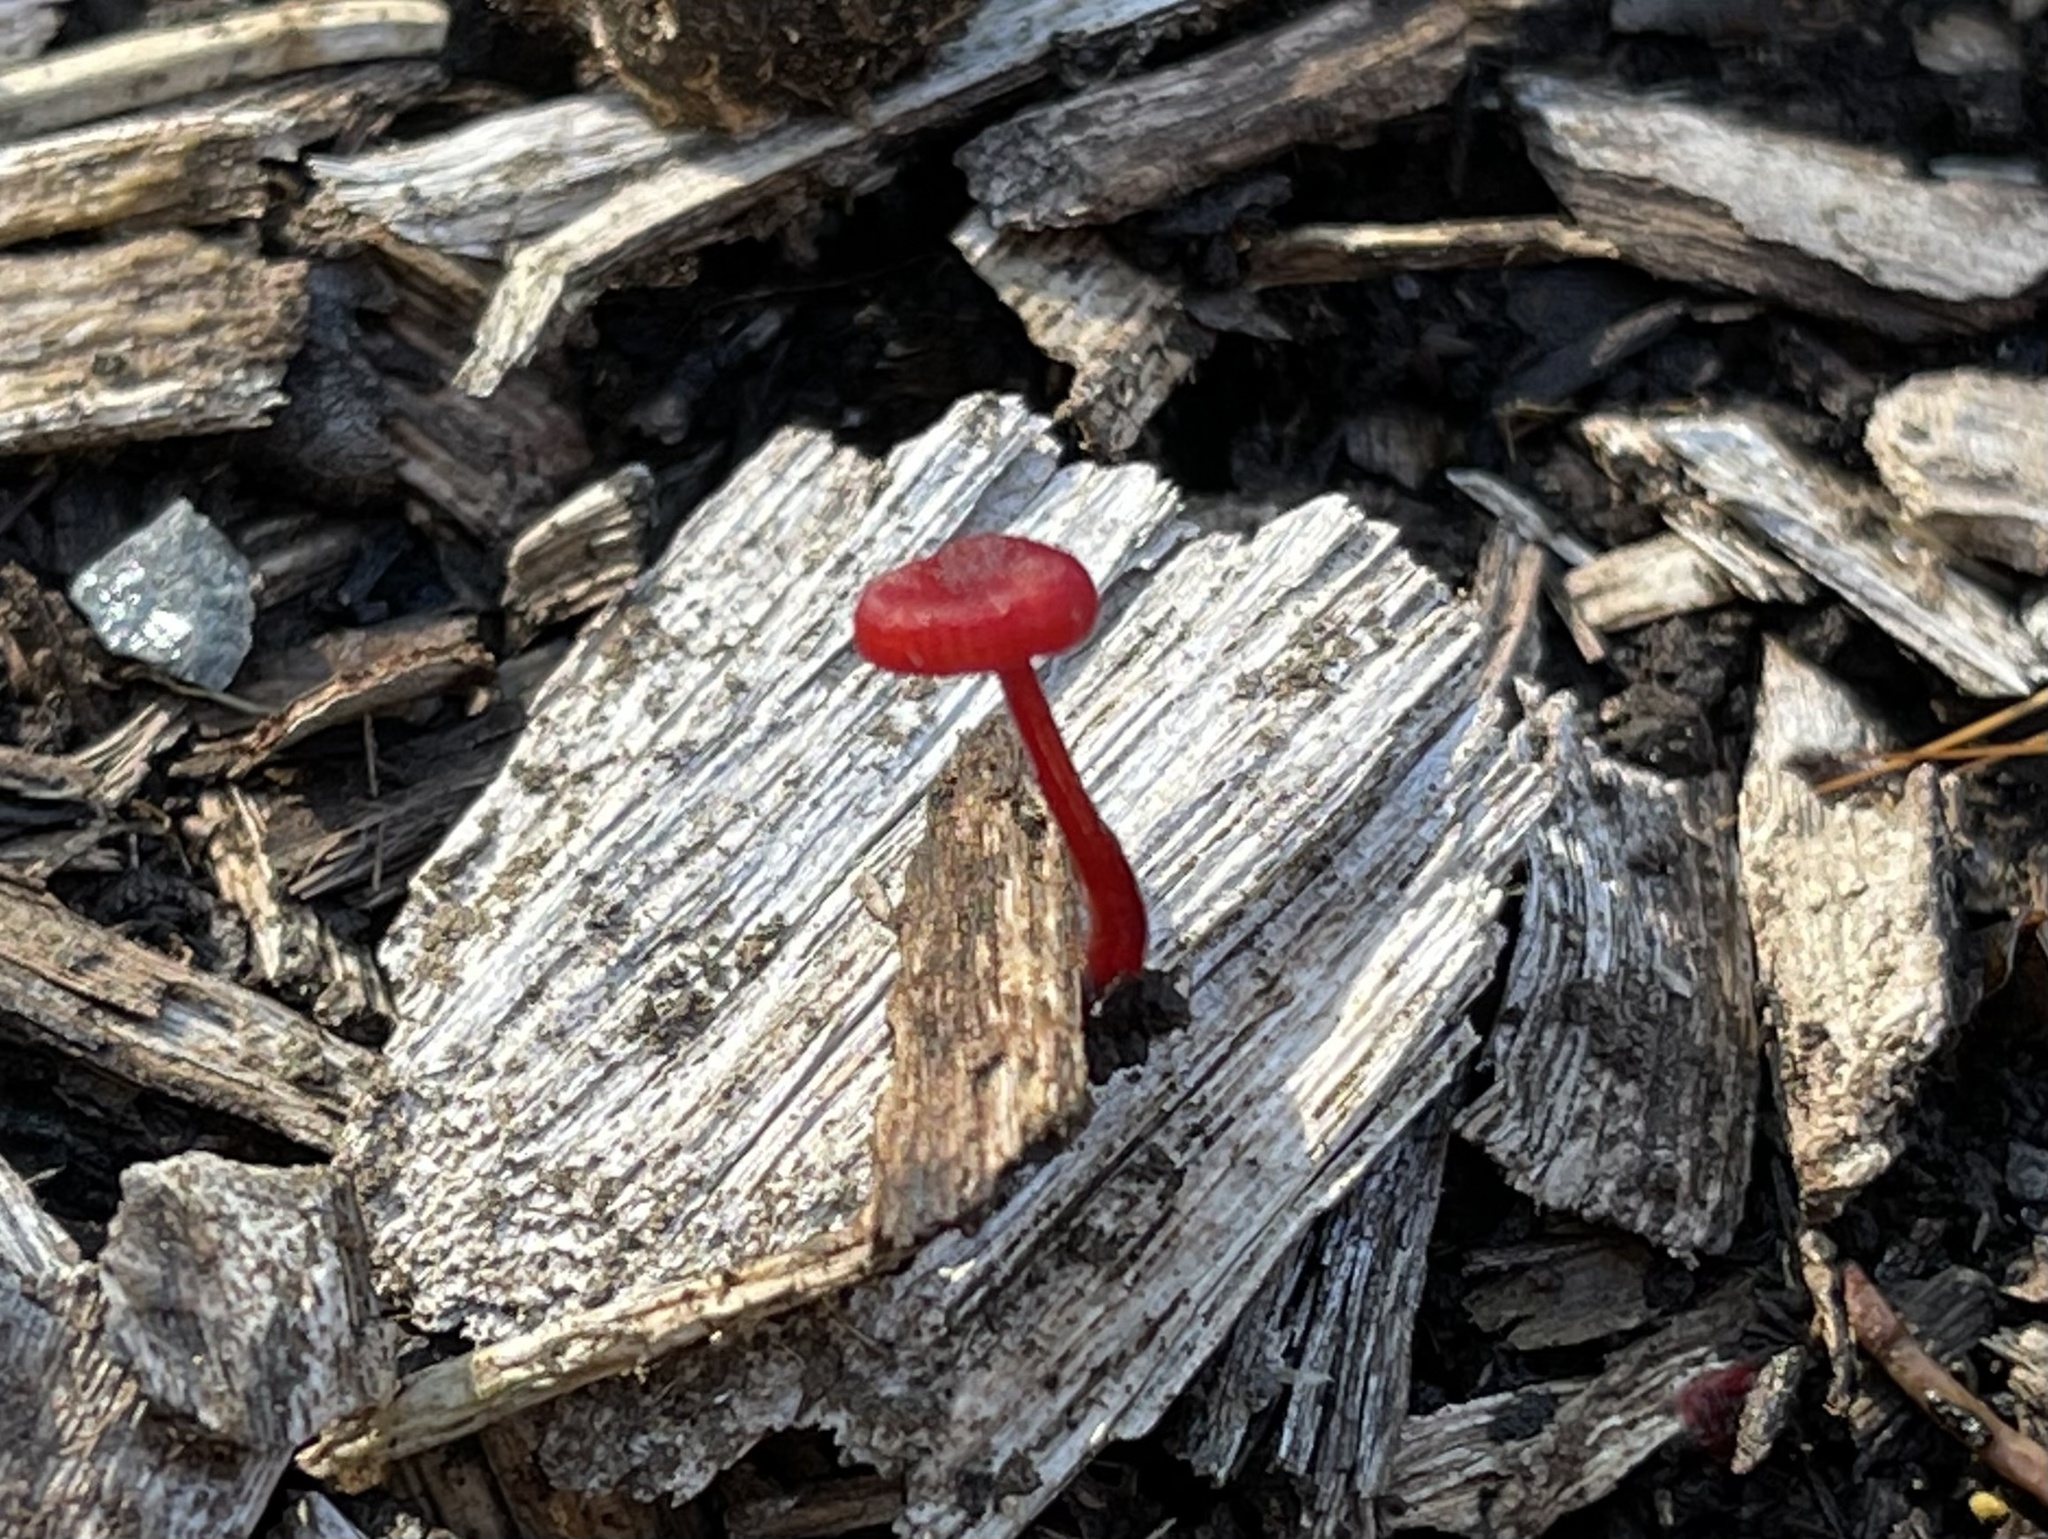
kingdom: Fungi
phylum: Basidiomycota
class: Agaricomycetes
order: Agaricales
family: Mycenaceae
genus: Cruentomycena
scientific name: Cruentomycena viscidocruenta
